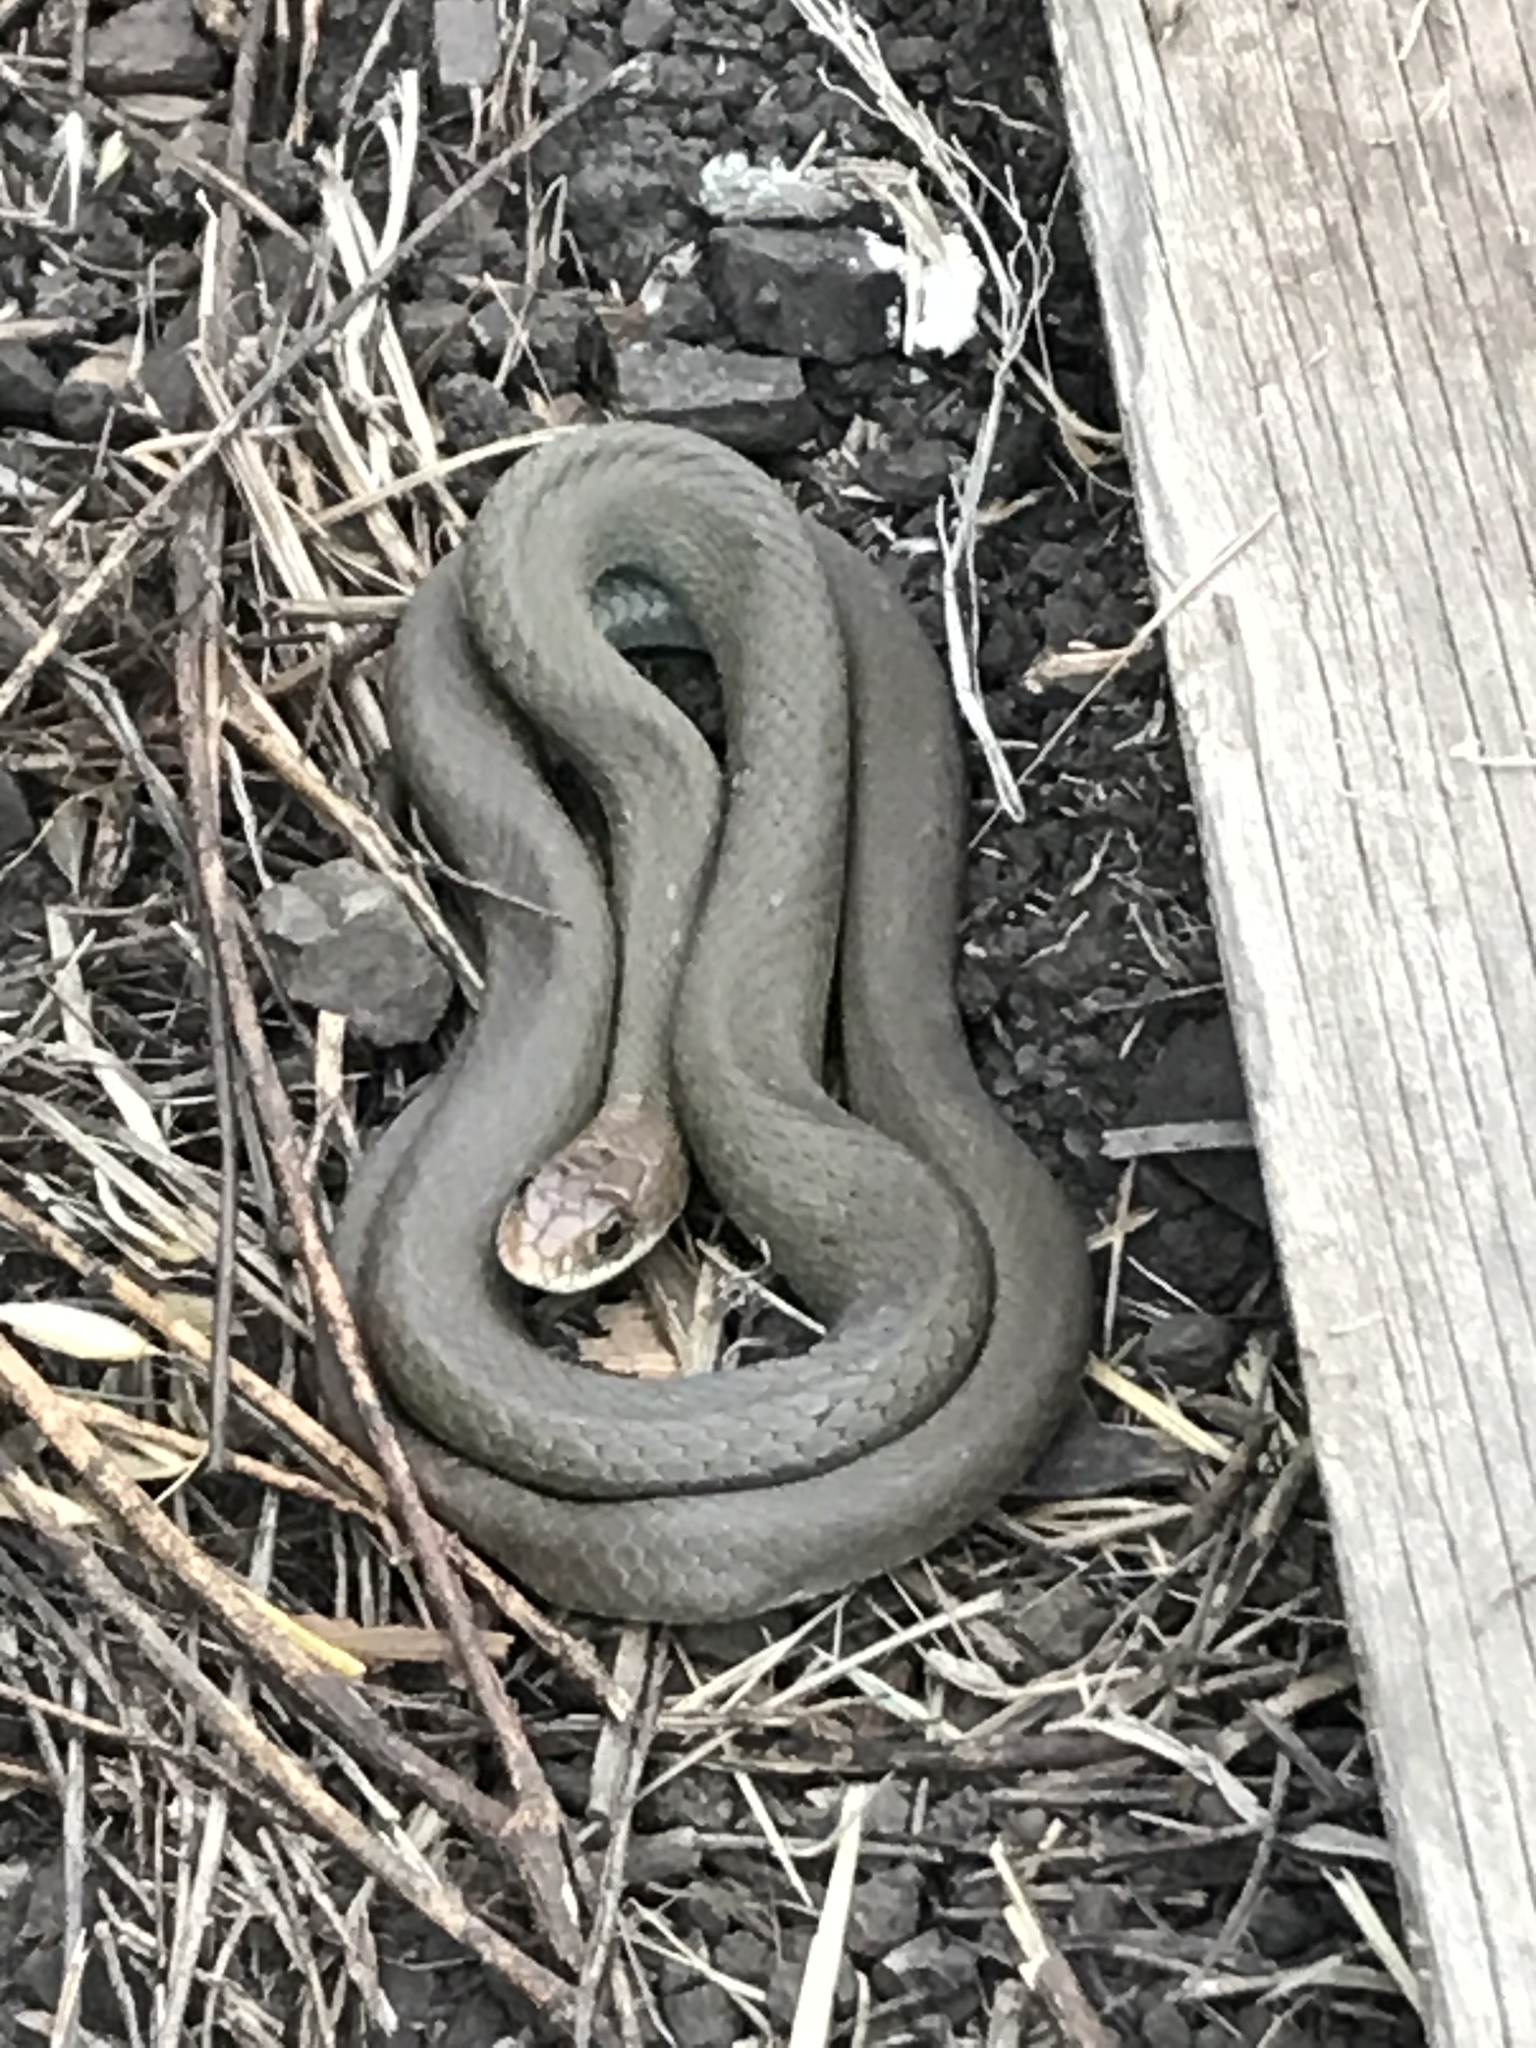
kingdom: Animalia
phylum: Chordata
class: Squamata
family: Colubridae
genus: Coluber
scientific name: Coluber constrictor
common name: Eastern racer
